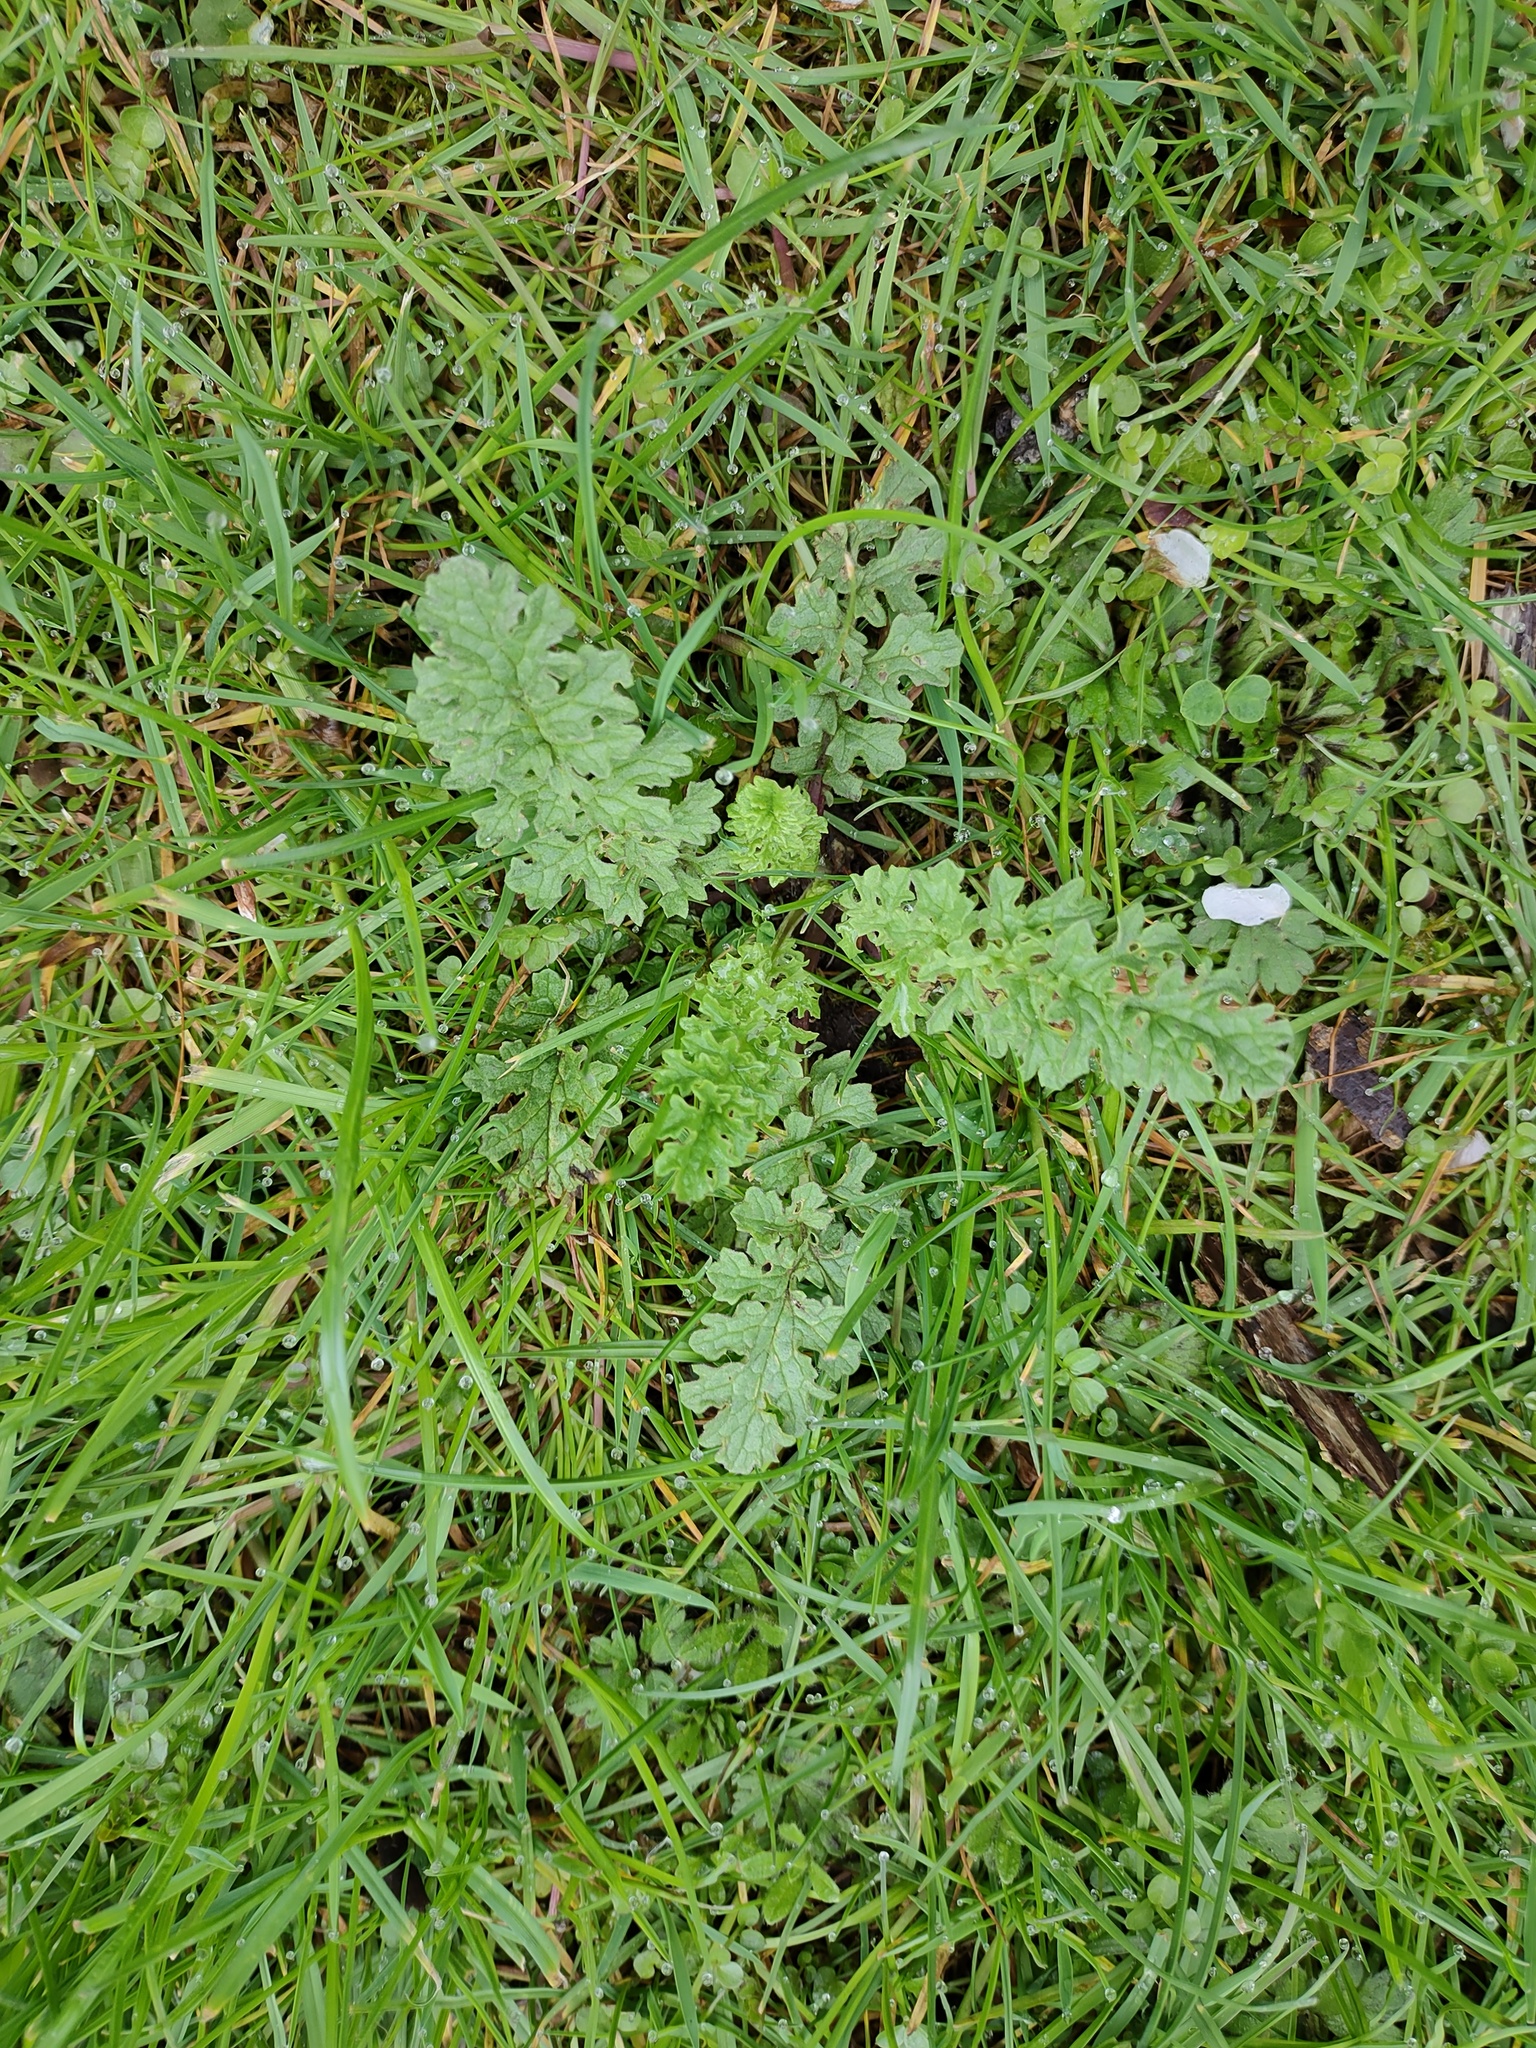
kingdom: Plantae
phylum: Tracheophyta
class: Magnoliopsida
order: Asterales
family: Asteraceae
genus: Jacobaea
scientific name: Jacobaea vulgaris
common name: Stinking willie
